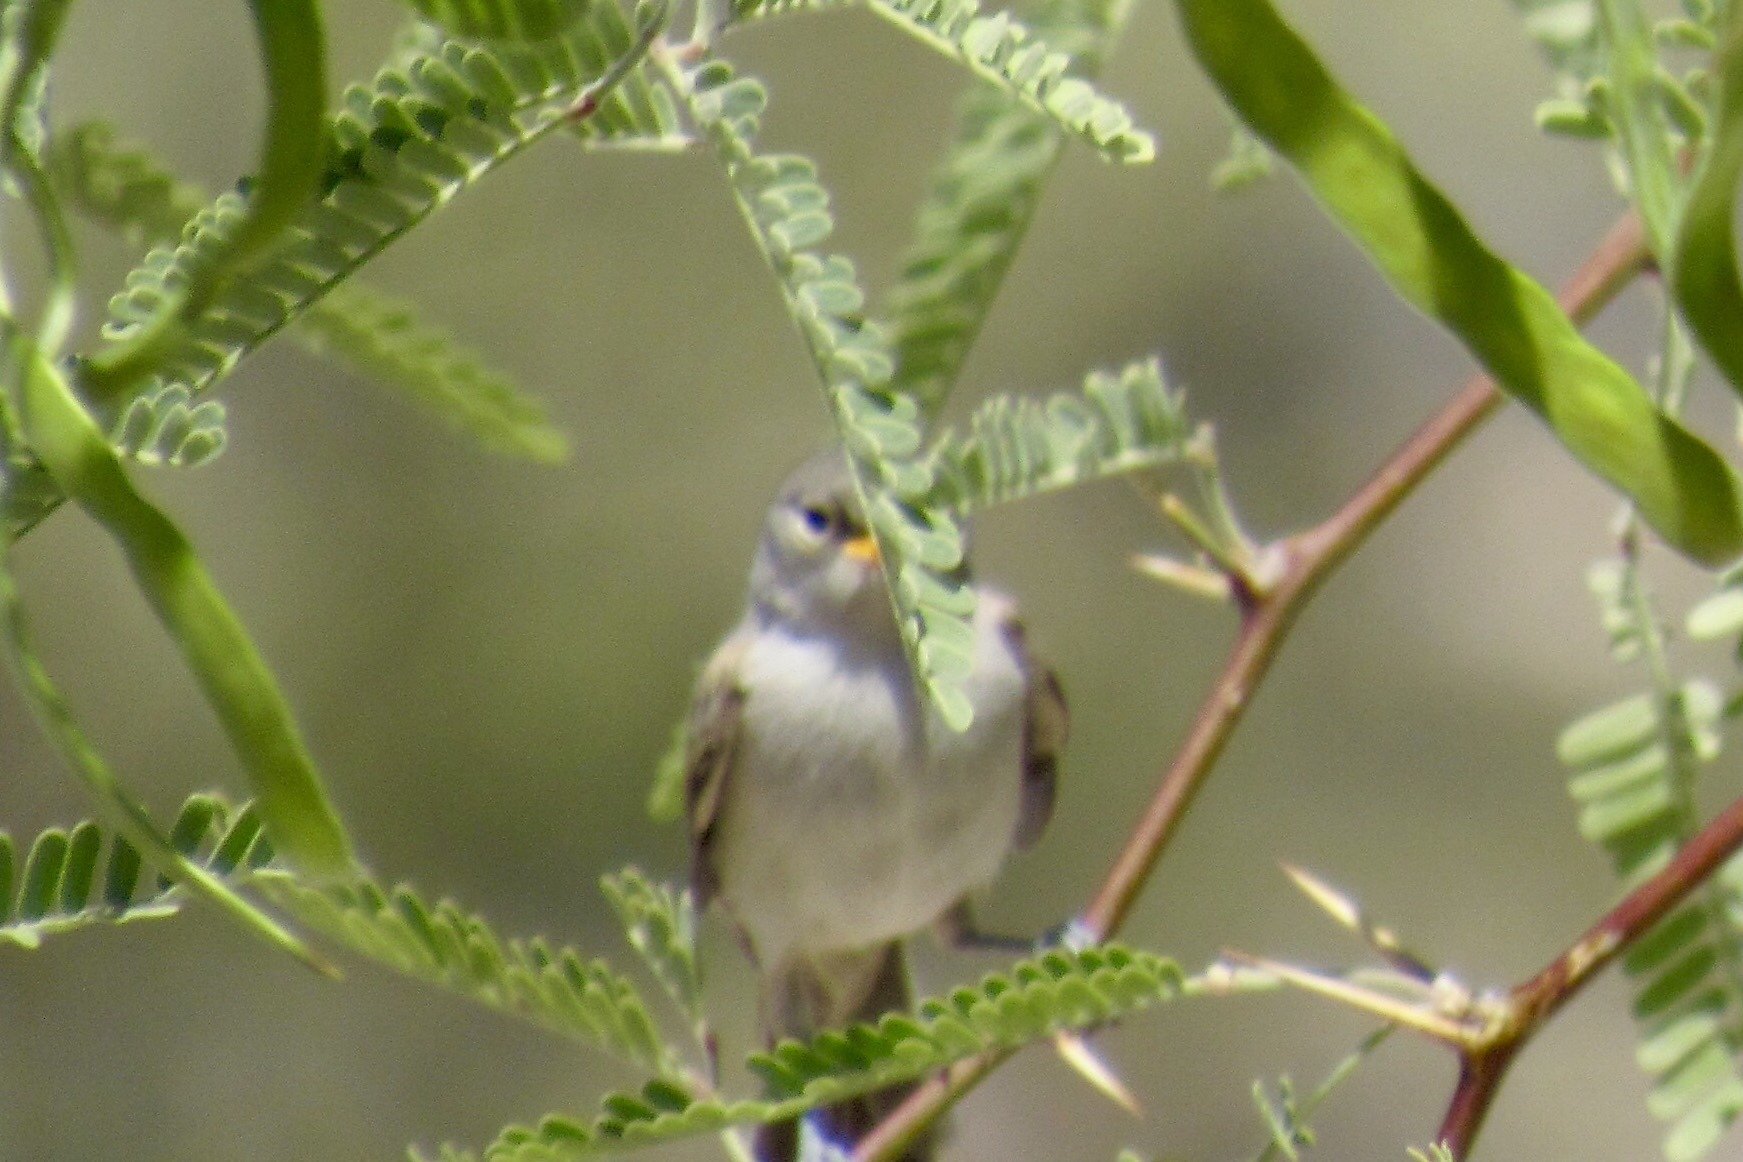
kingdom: Animalia
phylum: Chordata
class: Aves
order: Passeriformes
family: Remizidae
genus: Auriparus
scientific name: Auriparus flaviceps
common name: Verdin
